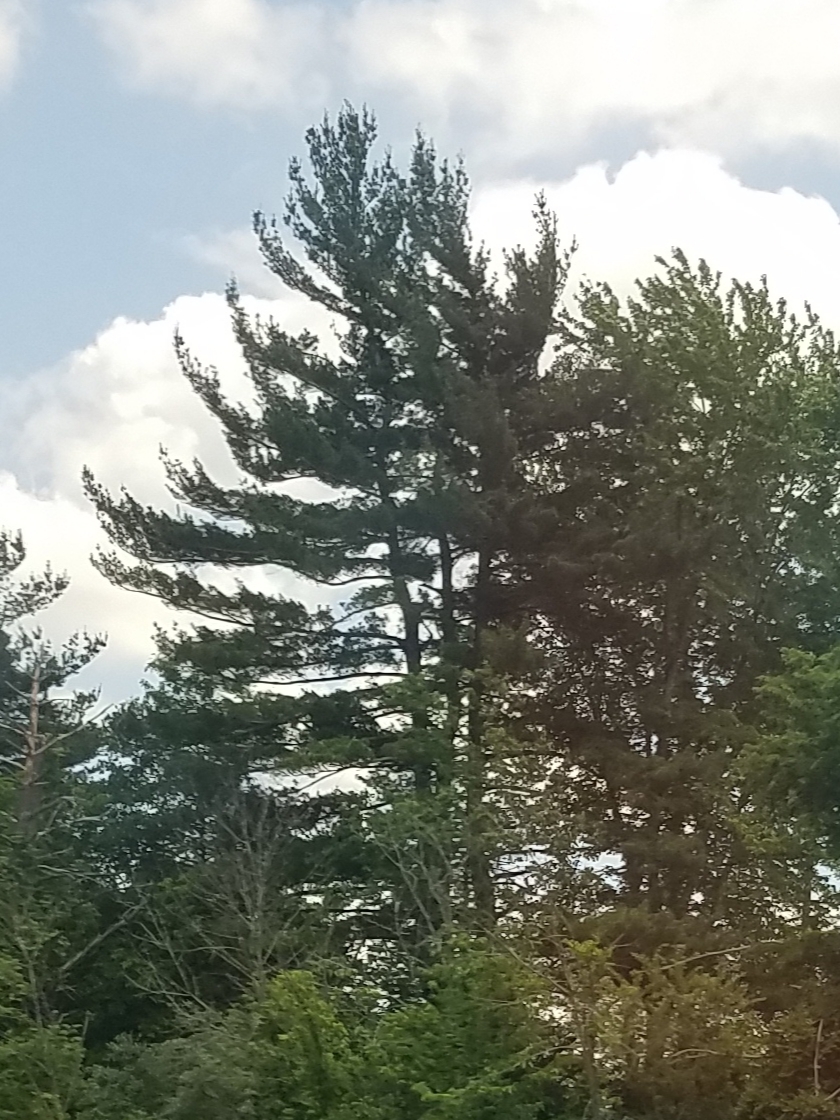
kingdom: Plantae
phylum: Tracheophyta
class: Pinopsida
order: Pinales
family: Pinaceae
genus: Pinus
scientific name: Pinus strobus
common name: Weymouth pine
